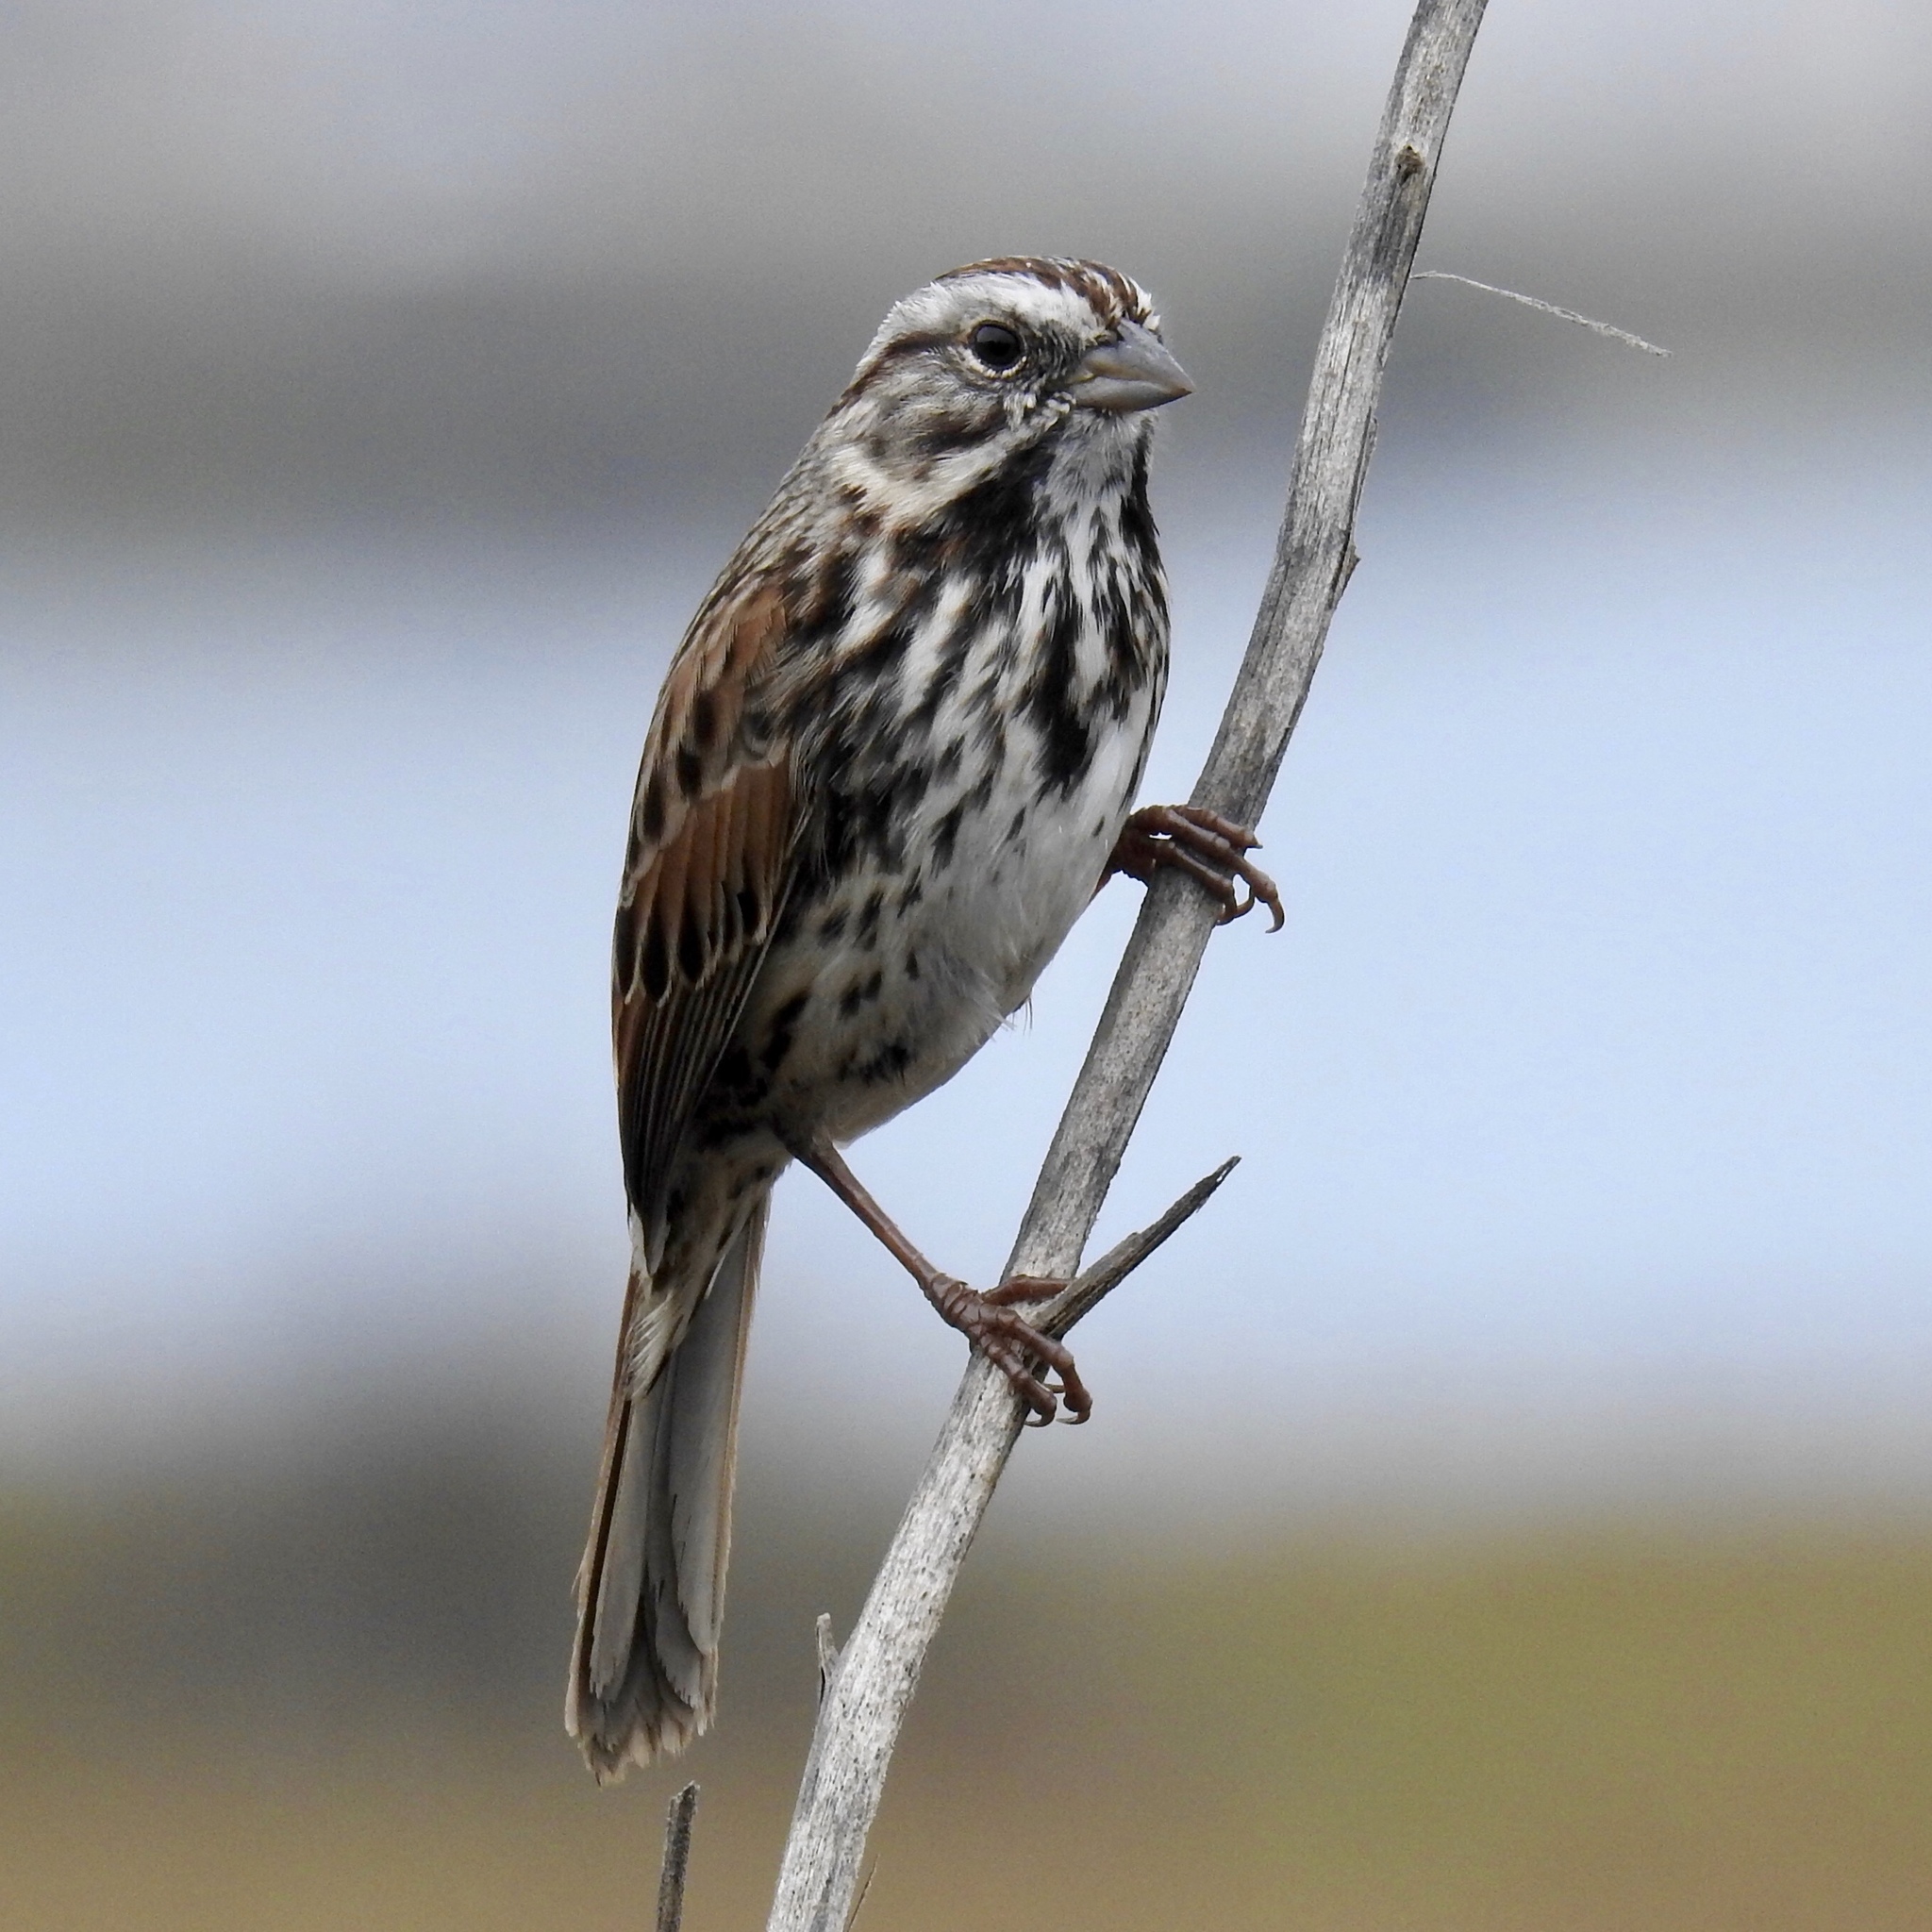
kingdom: Animalia
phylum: Chordata
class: Aves
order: Passeriformes
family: Passerellidae
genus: Melospiza
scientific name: Melospiza melodia
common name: Song sparrow
